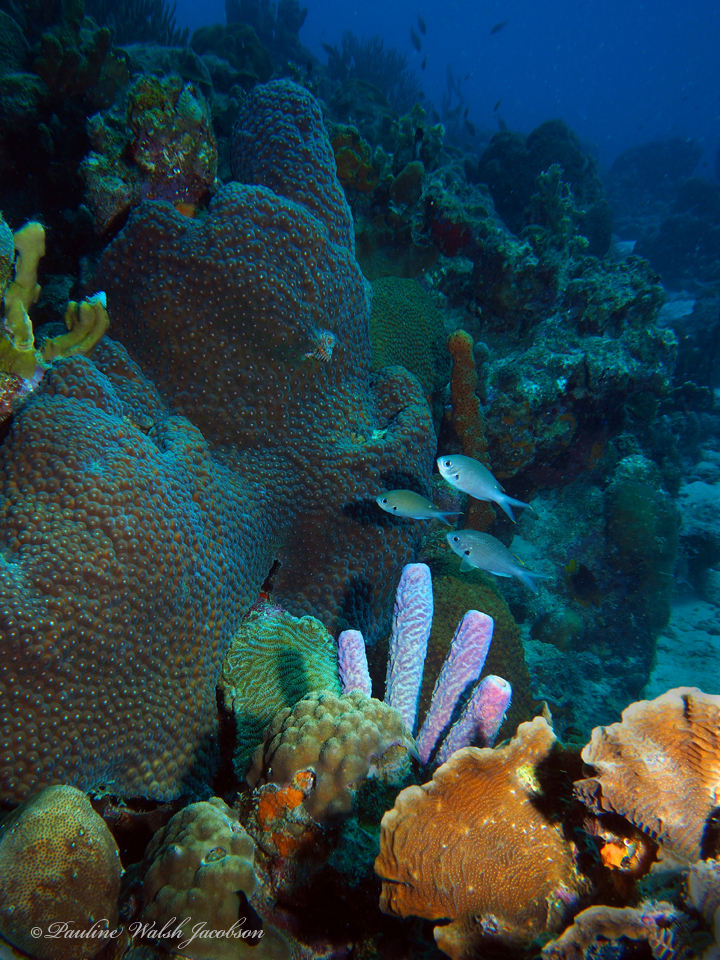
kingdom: Animalia
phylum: Chordata
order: Perciformes
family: Pomacentridae
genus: Chromis
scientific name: Chromis multilineata
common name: Brown chromis
